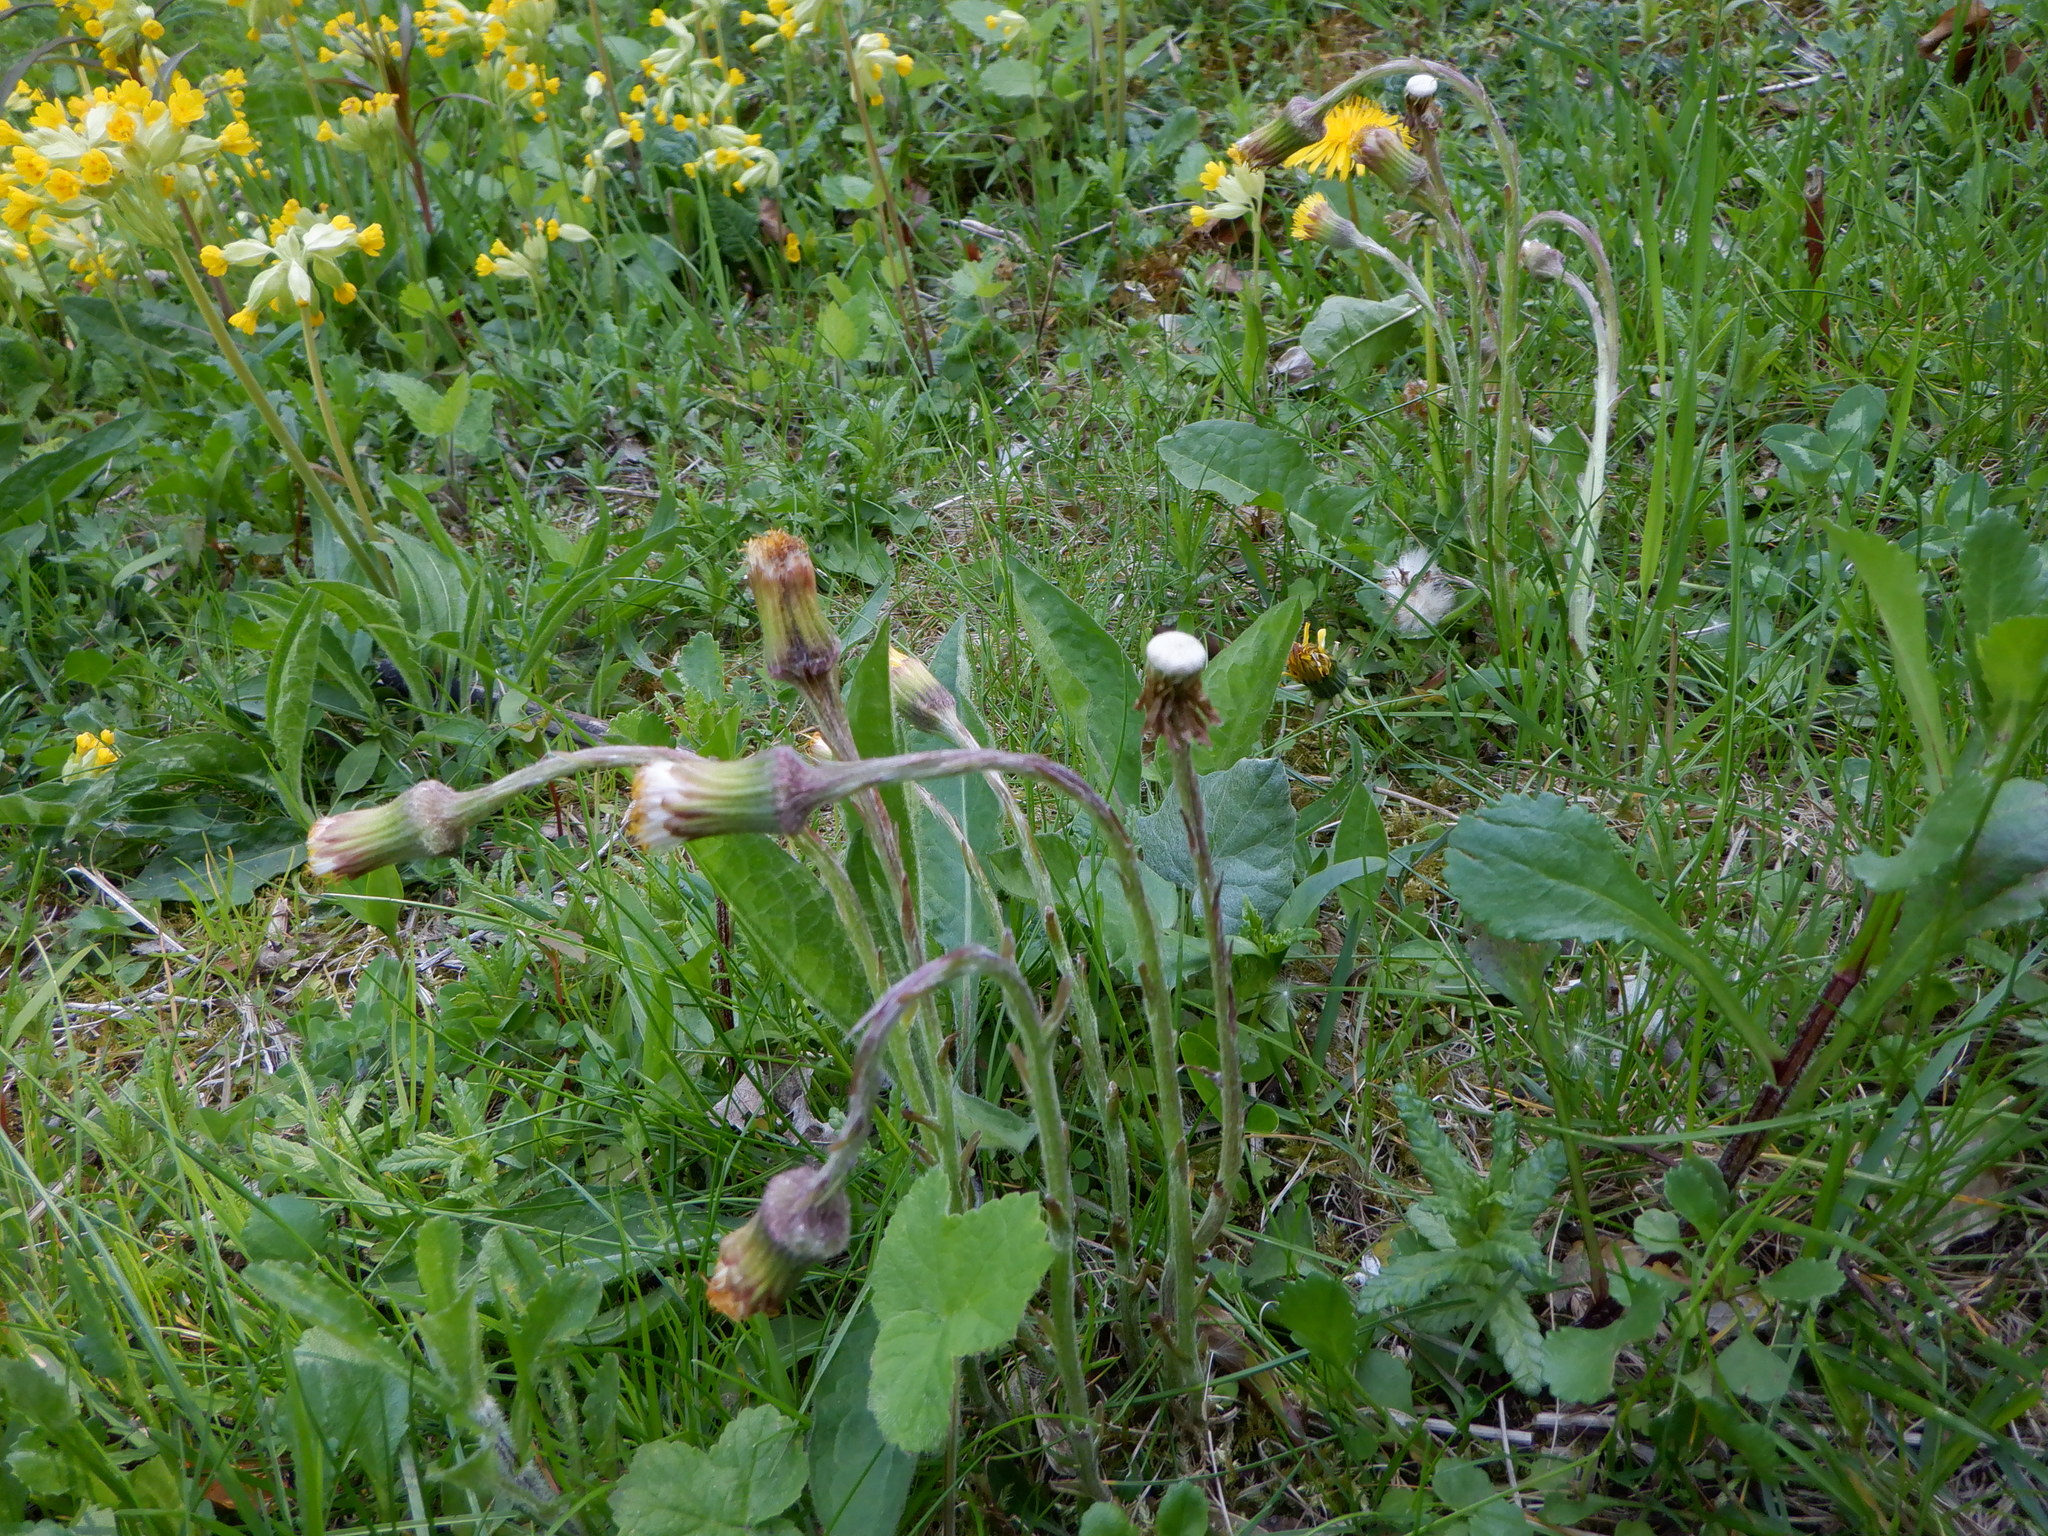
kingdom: Plantae
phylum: Tracheophyta
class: Magnoliopsida
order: Asterales
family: Asteraceae
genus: Tussilago
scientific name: Tussilago farfara
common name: Coltsfoot
